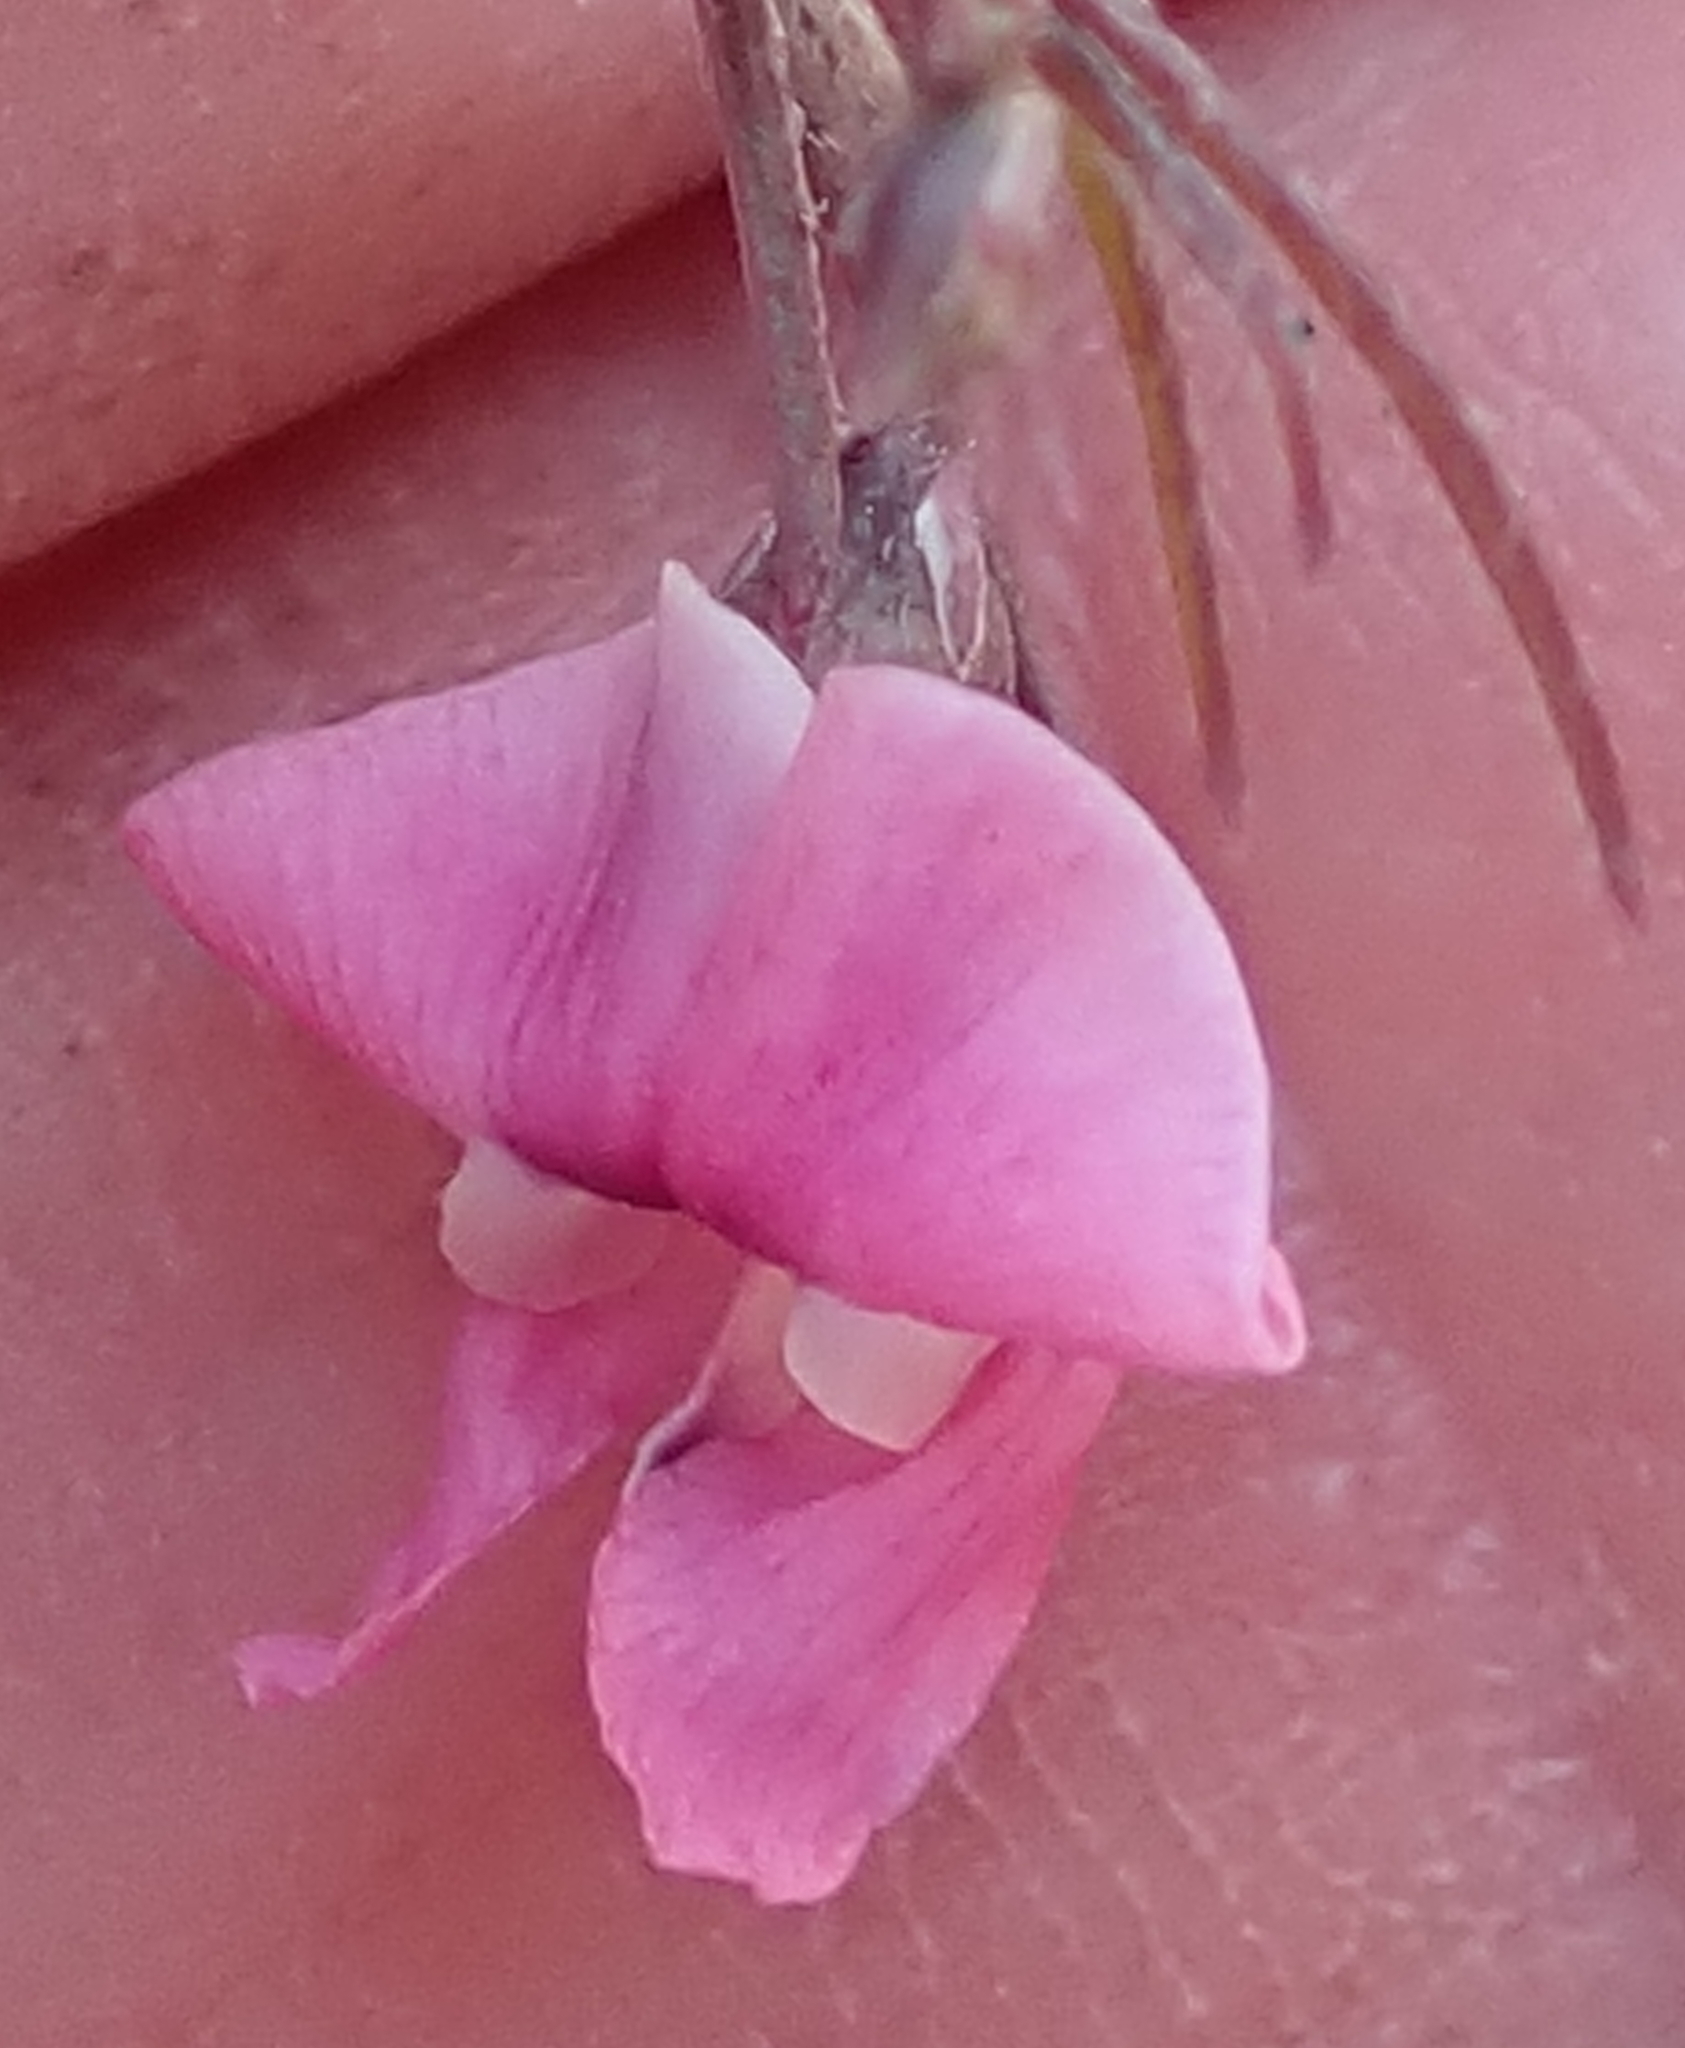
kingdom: Plantae
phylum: Tracheophyta
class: Magnoliopsida
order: Fabales
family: Fabaceae
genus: Dolichos
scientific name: Dolichos angustissimus
